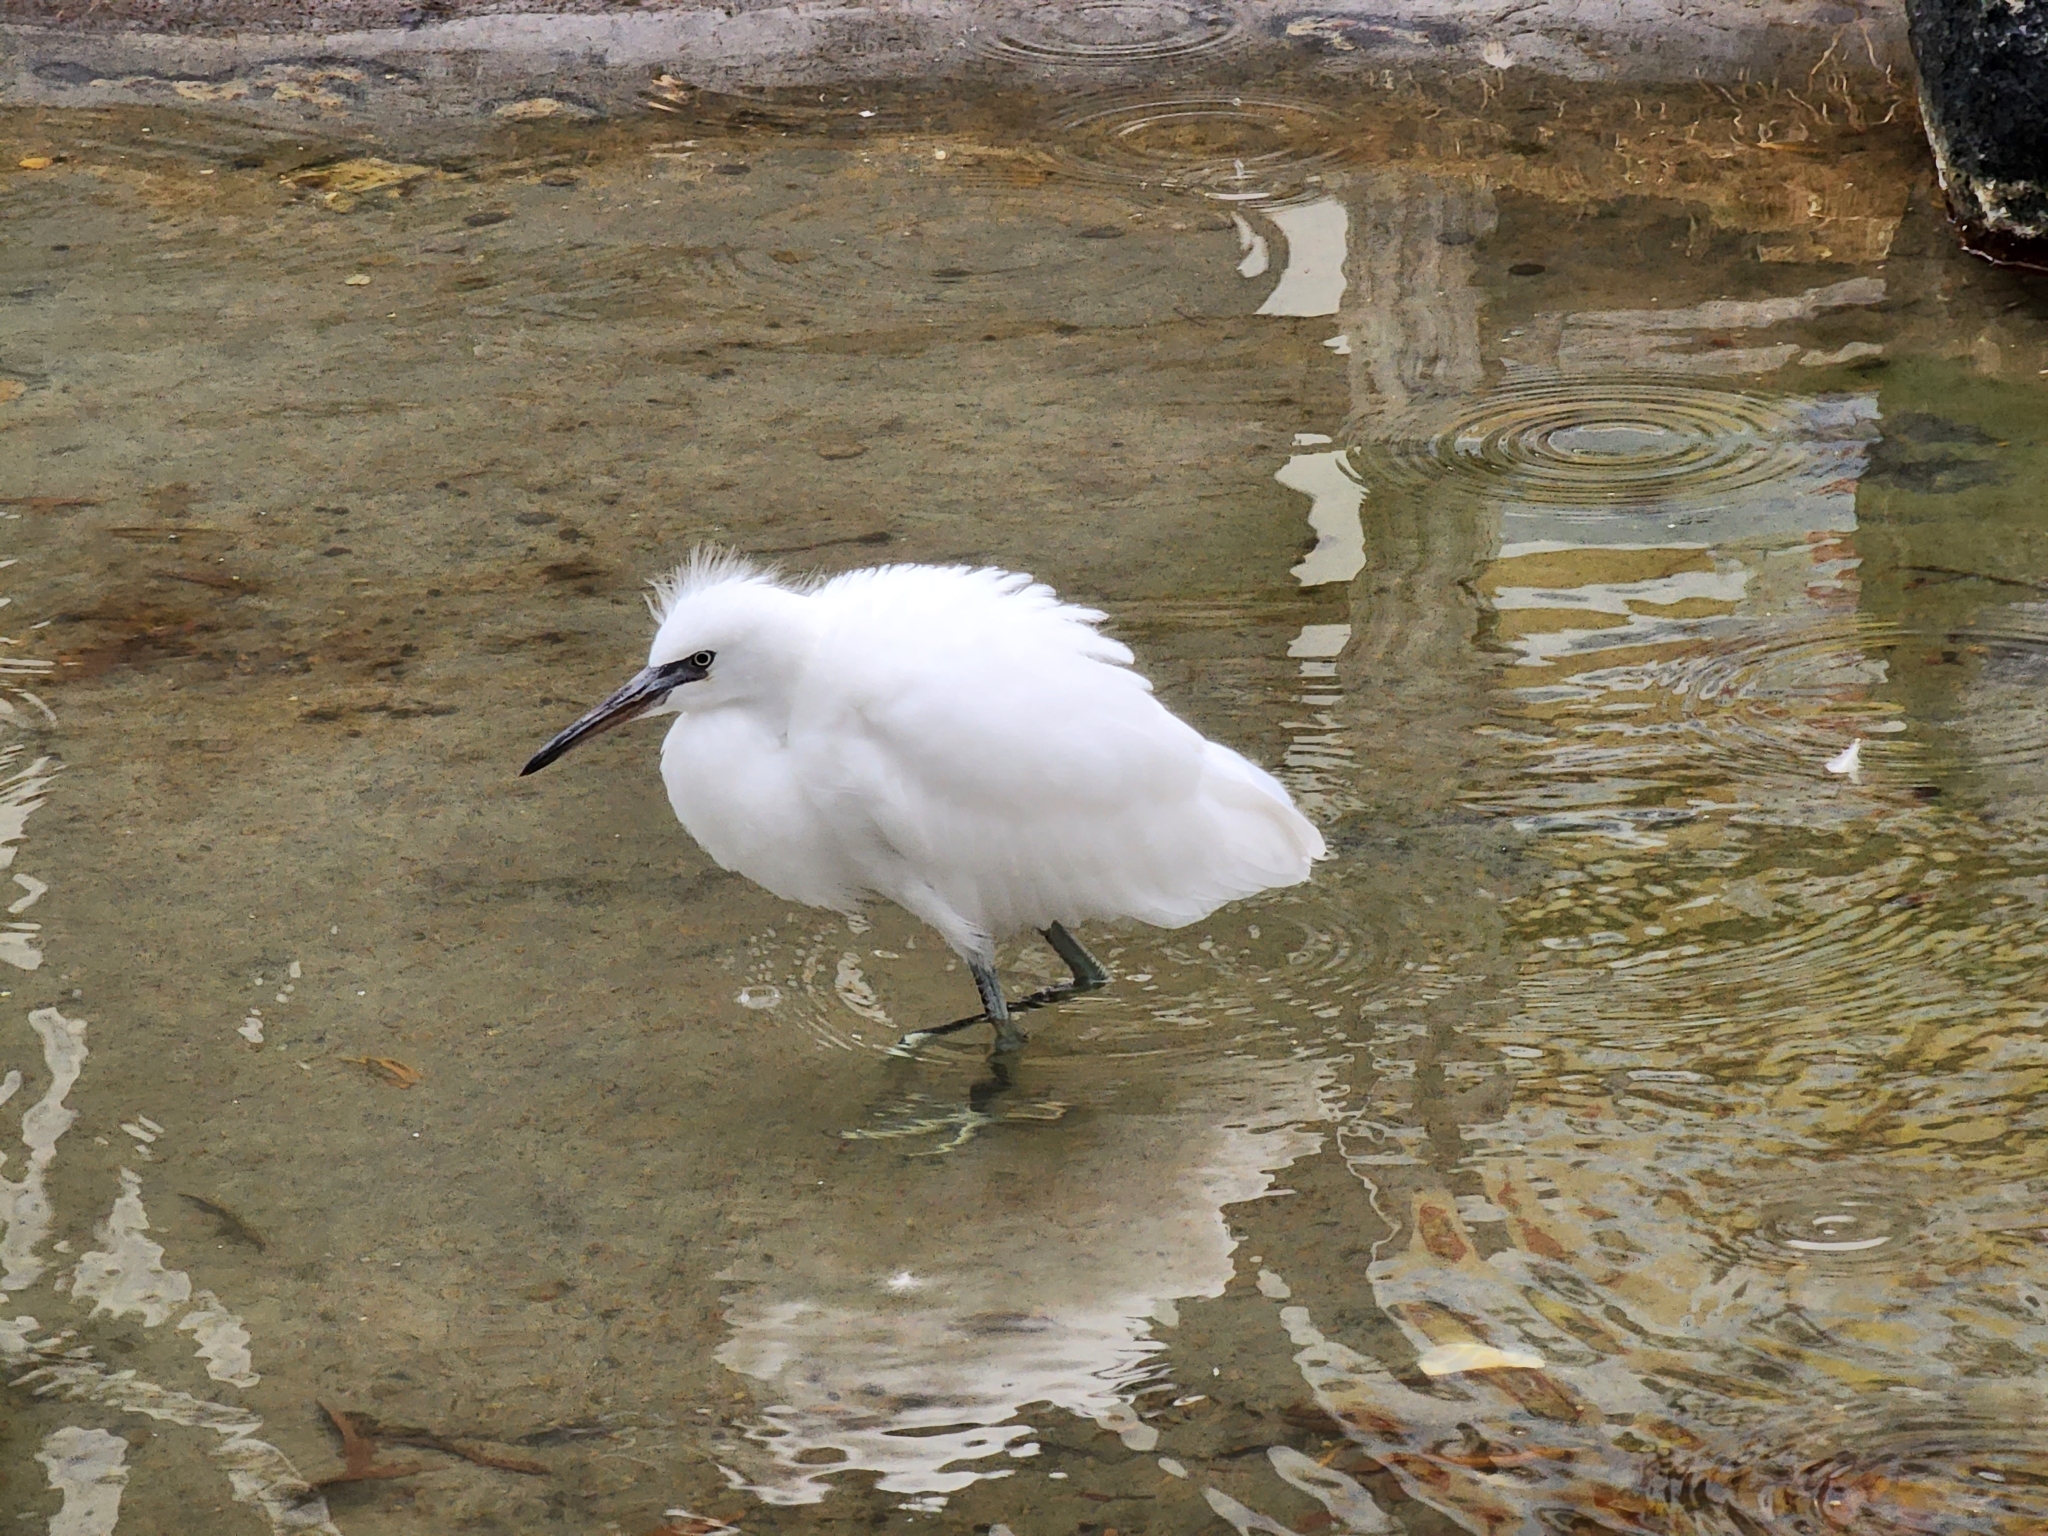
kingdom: Animalia
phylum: Chordata
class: Aves
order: Pelecaniformes
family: Ardeidae
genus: Egretta
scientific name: Egretta thula
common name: Snowy egret
